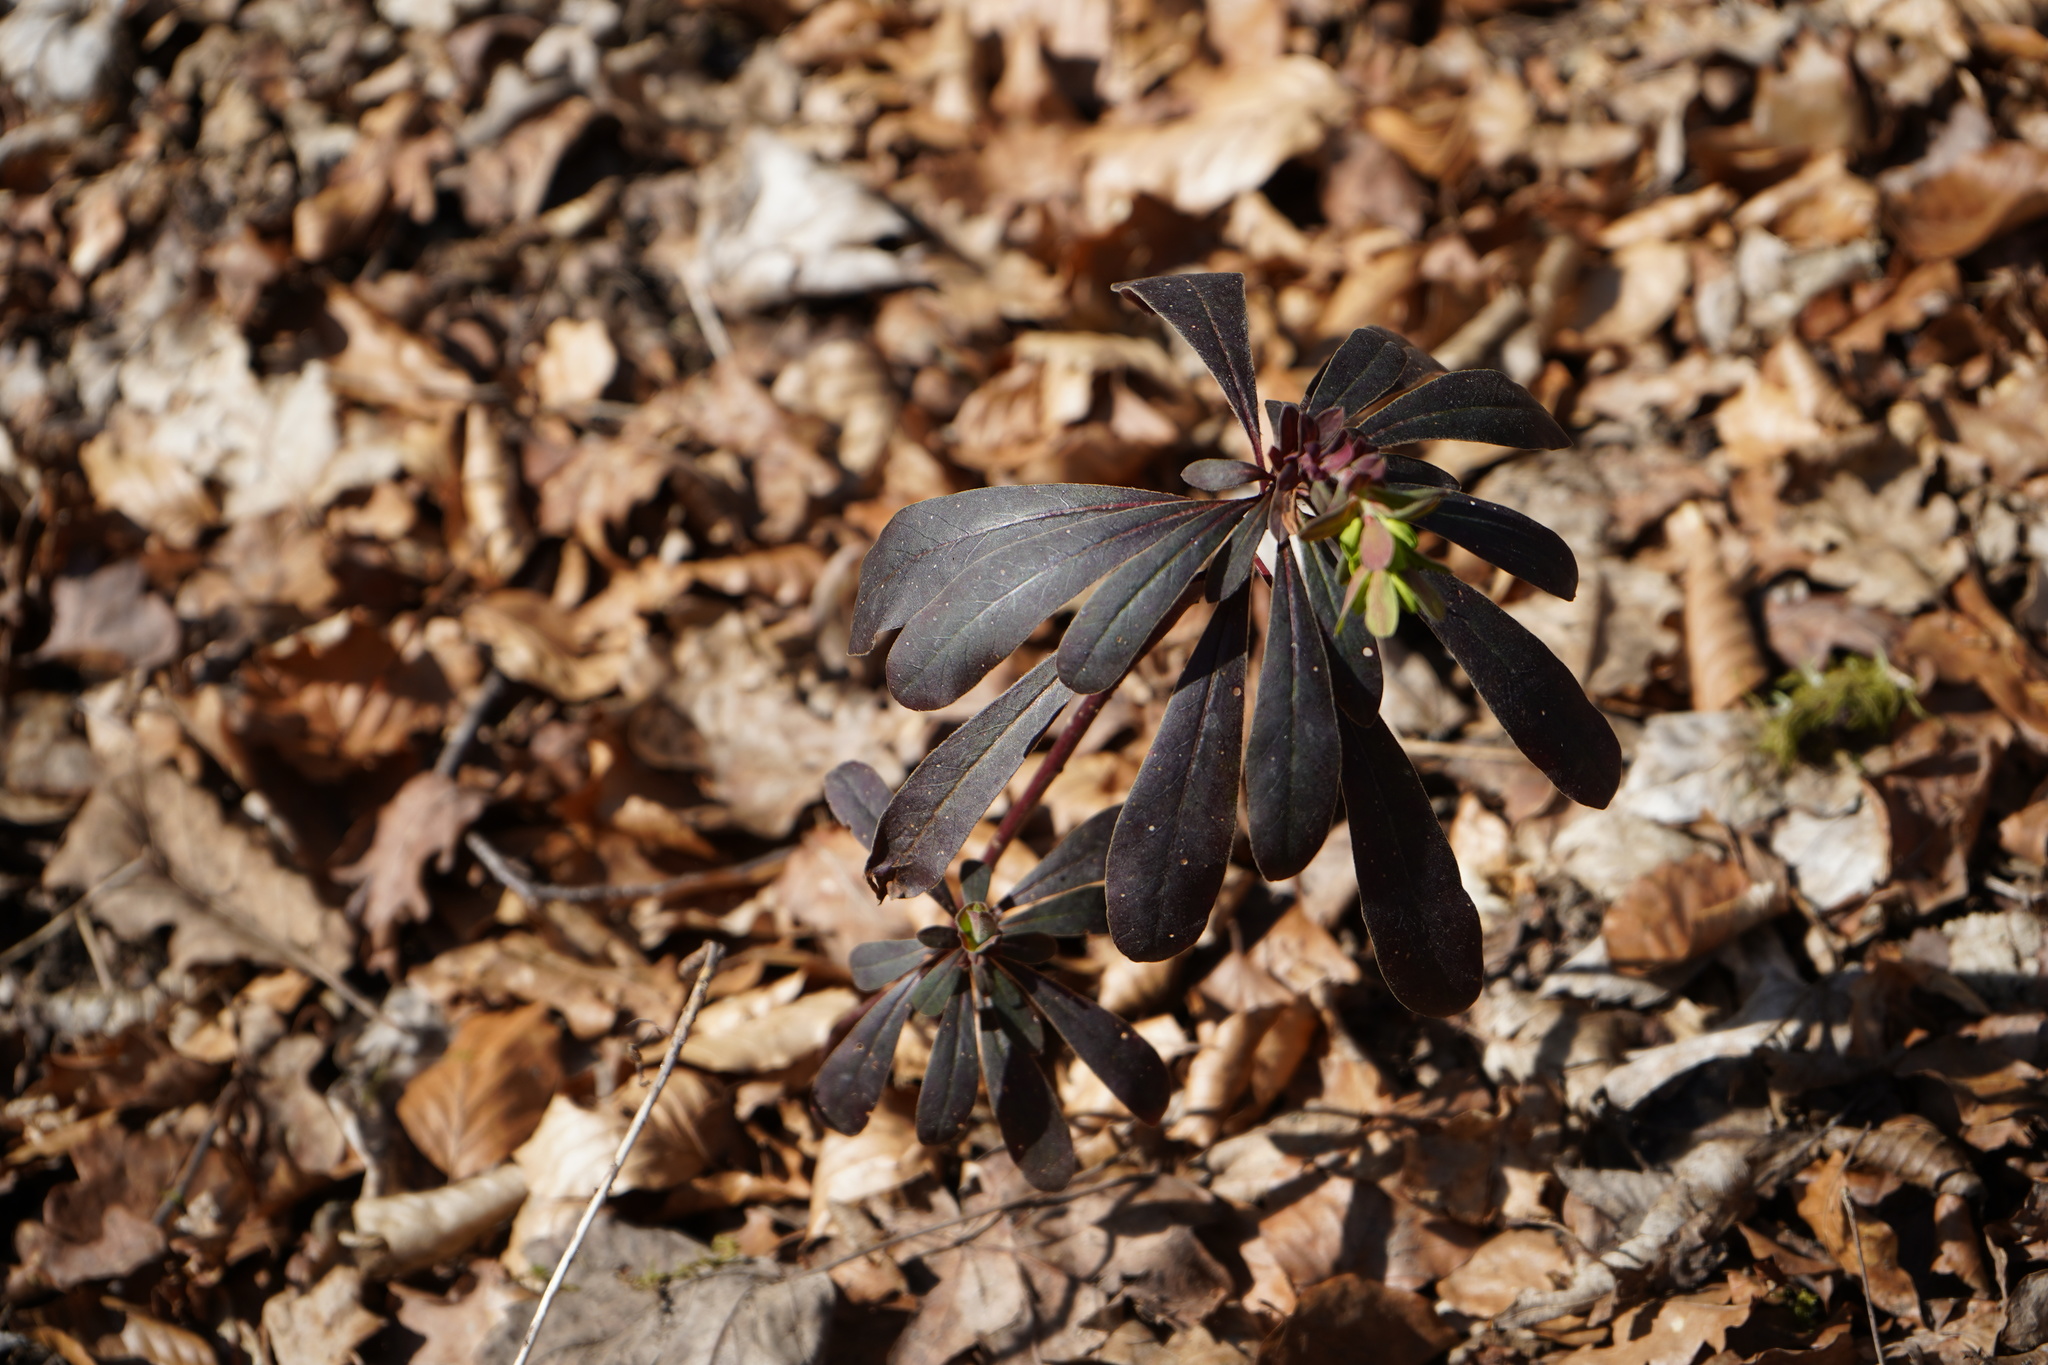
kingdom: Plantae
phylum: Tracheophyta
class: Magnoliopsida
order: Malpighiales
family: Euphorbiaceae
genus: Euphorbia
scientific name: Euphorbia amygdaloides
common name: Wood spurge
